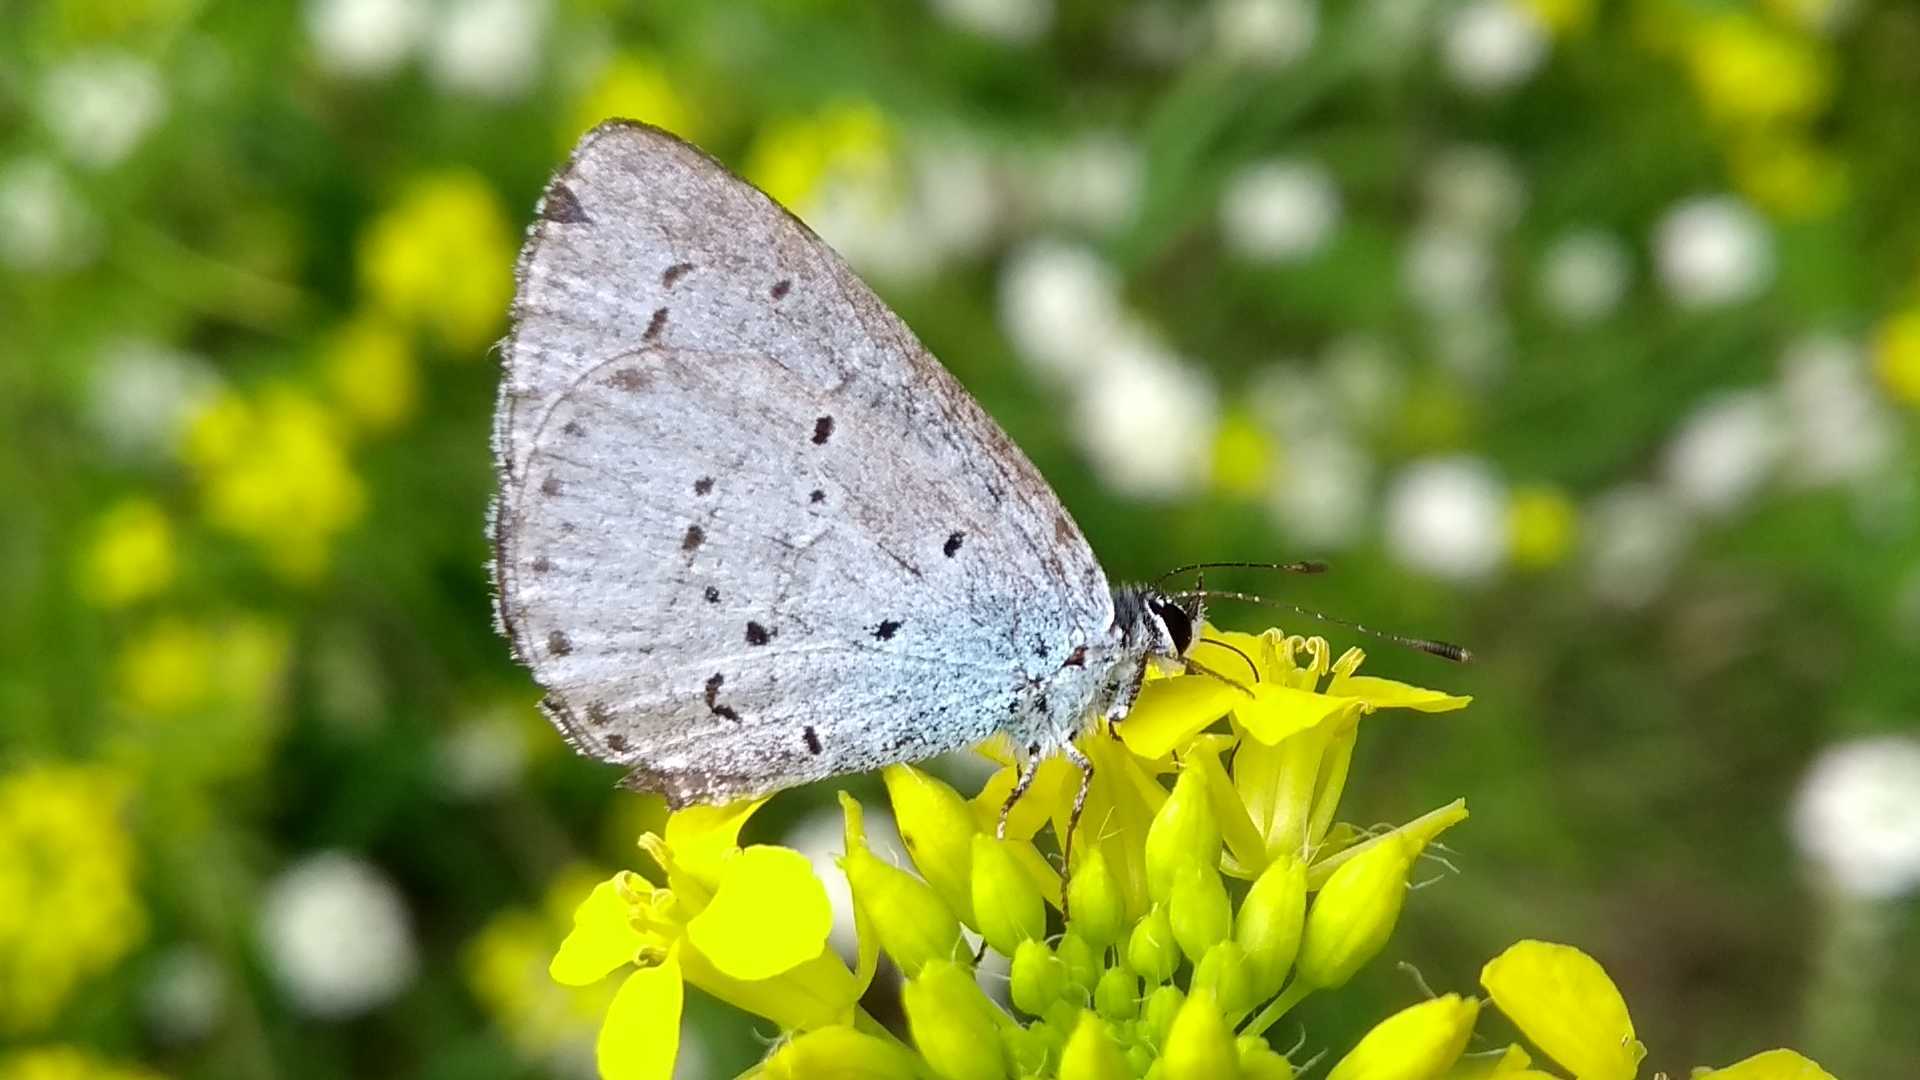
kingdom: Animalia
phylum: Arthropoda
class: Insecta
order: Lepidoptera
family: Lycaenidae
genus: Celastrina
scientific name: Celastrina argiolus
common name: Holly blue
